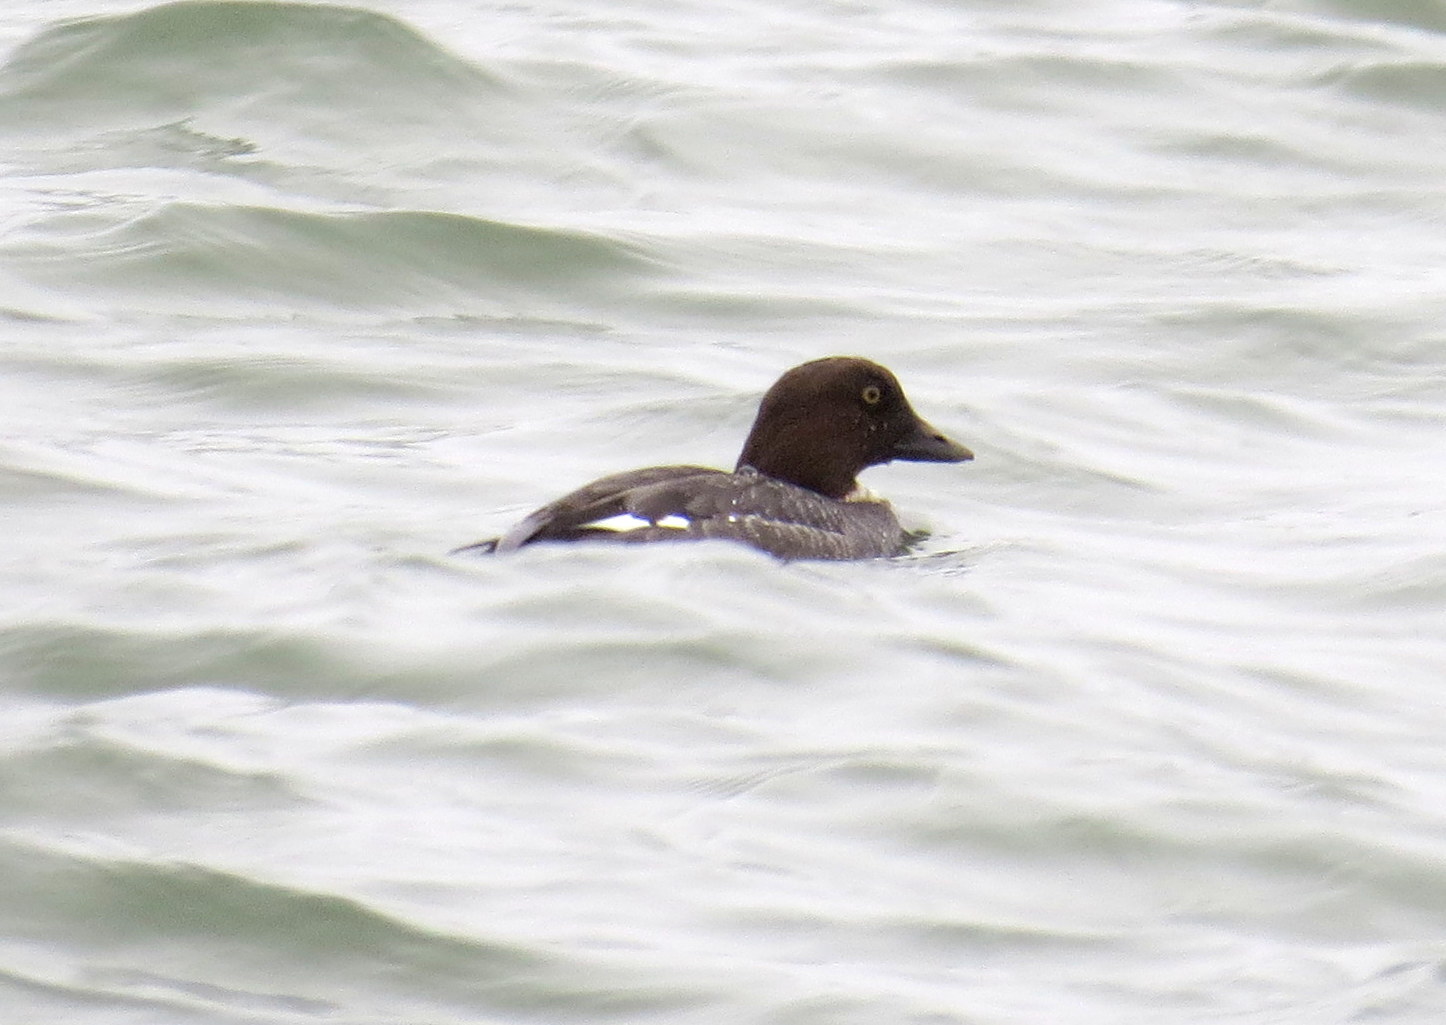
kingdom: Animalia
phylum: Chordata
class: Aves
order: Anseriformes
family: Anatidae
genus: Bucephala
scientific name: Bucephala clangula
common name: Common goldeneye
